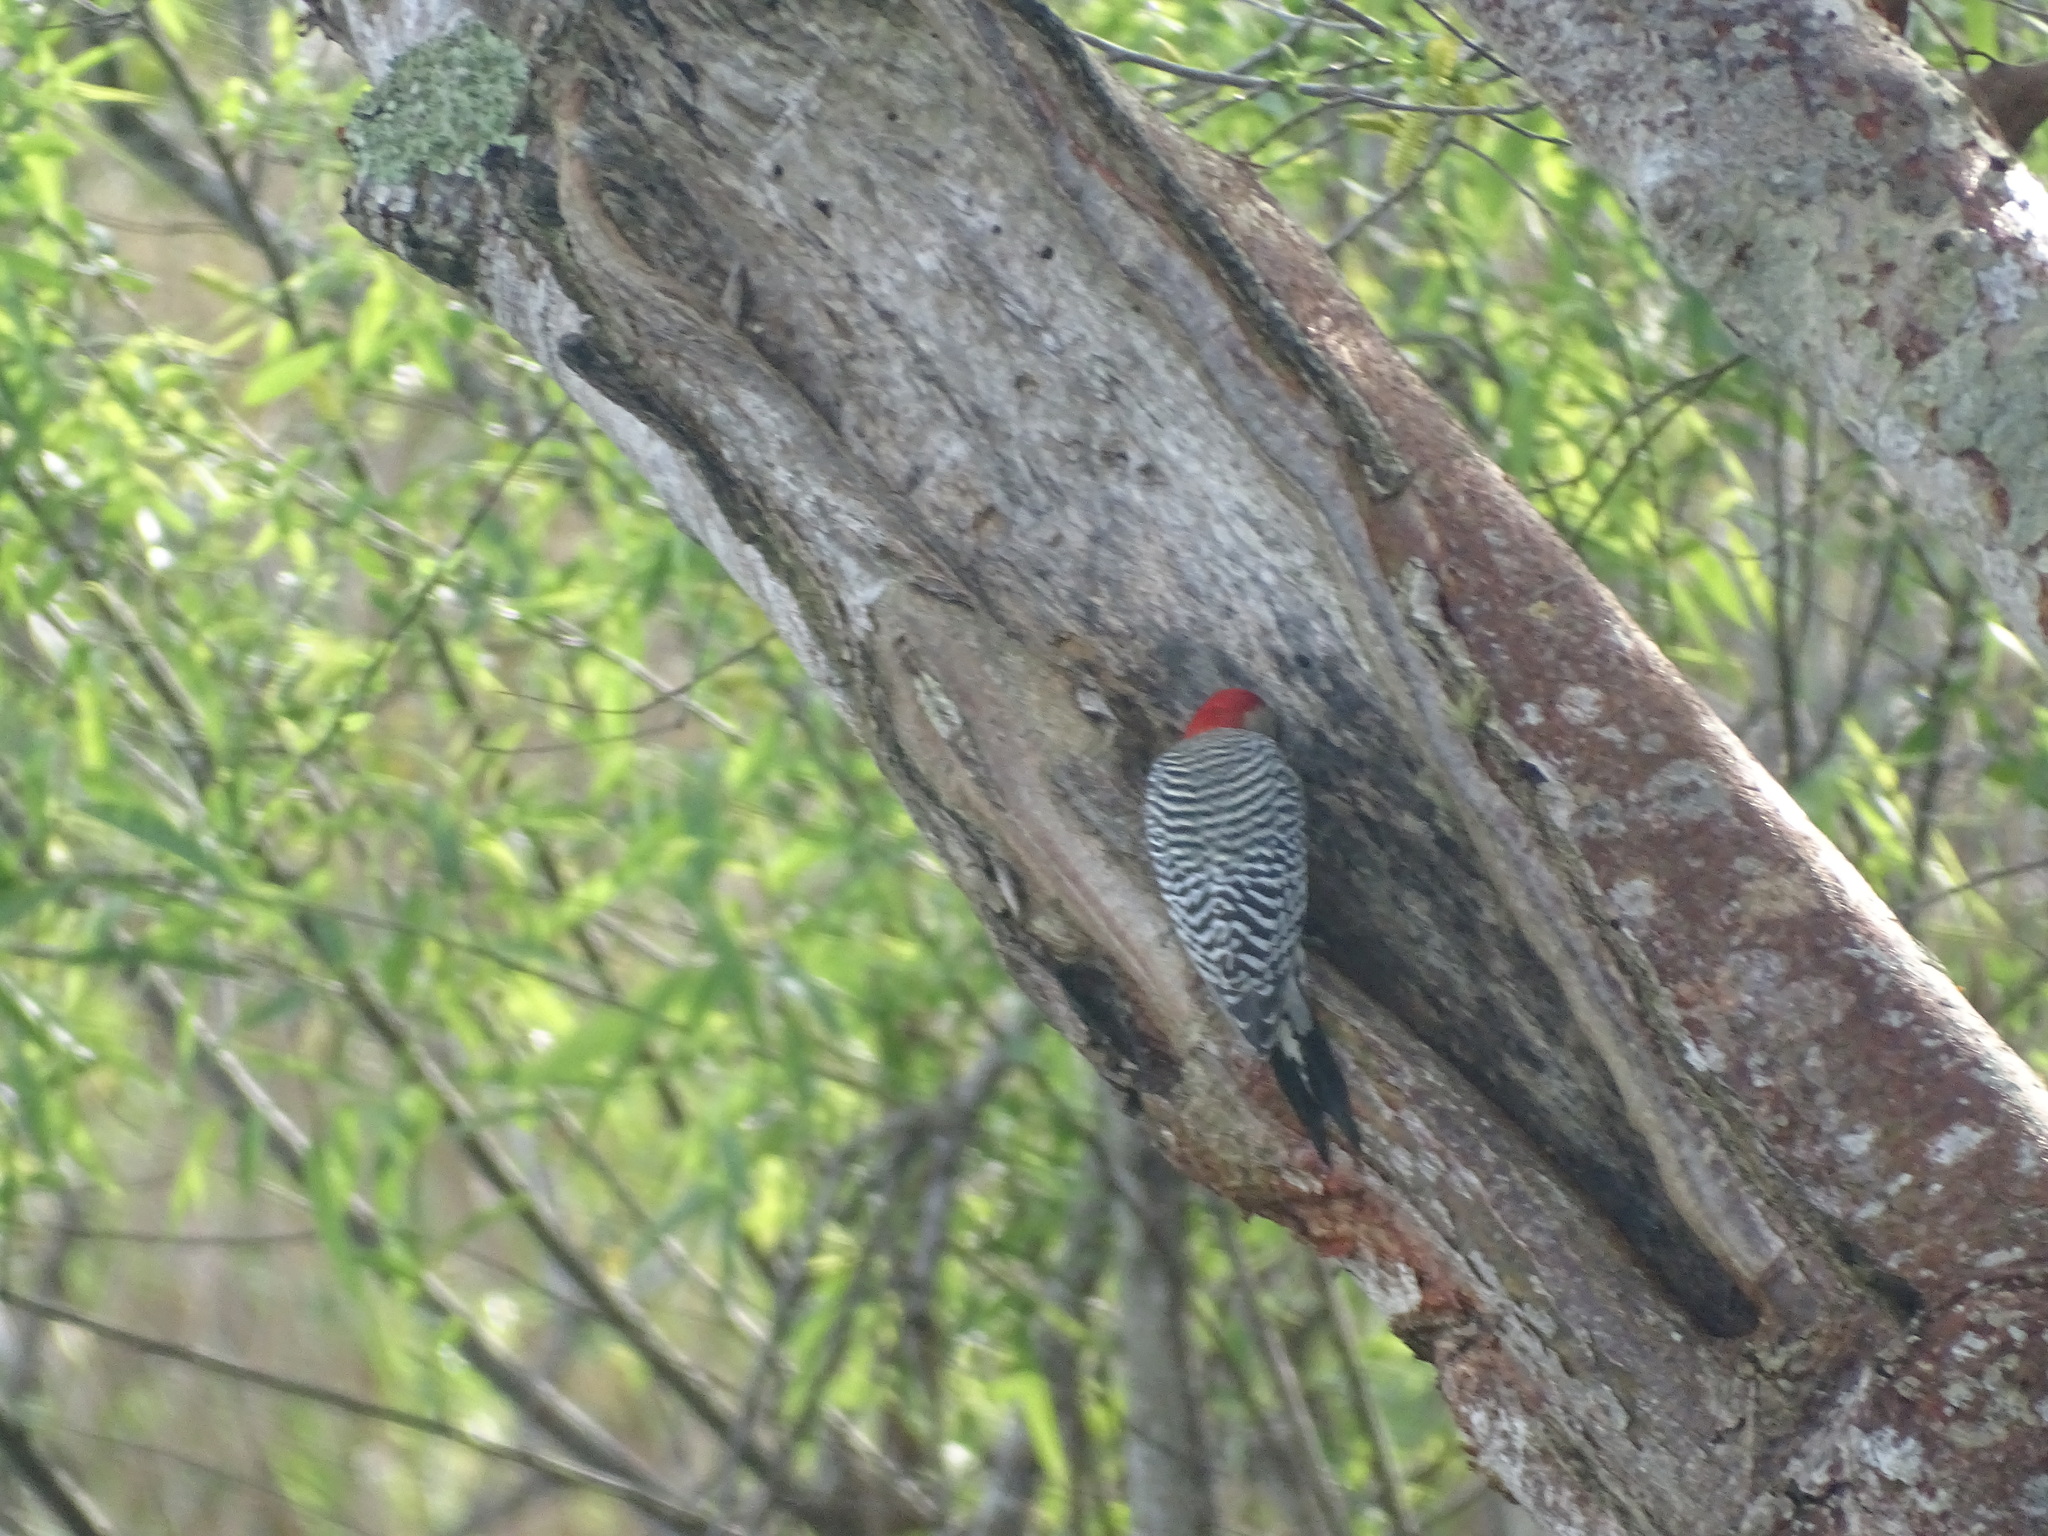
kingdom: Animalia
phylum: Chordata
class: Aves
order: Piciformes
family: Picidae
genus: Melanerpes
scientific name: Melanerpes carolinus
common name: Red-bellied woodpecker
